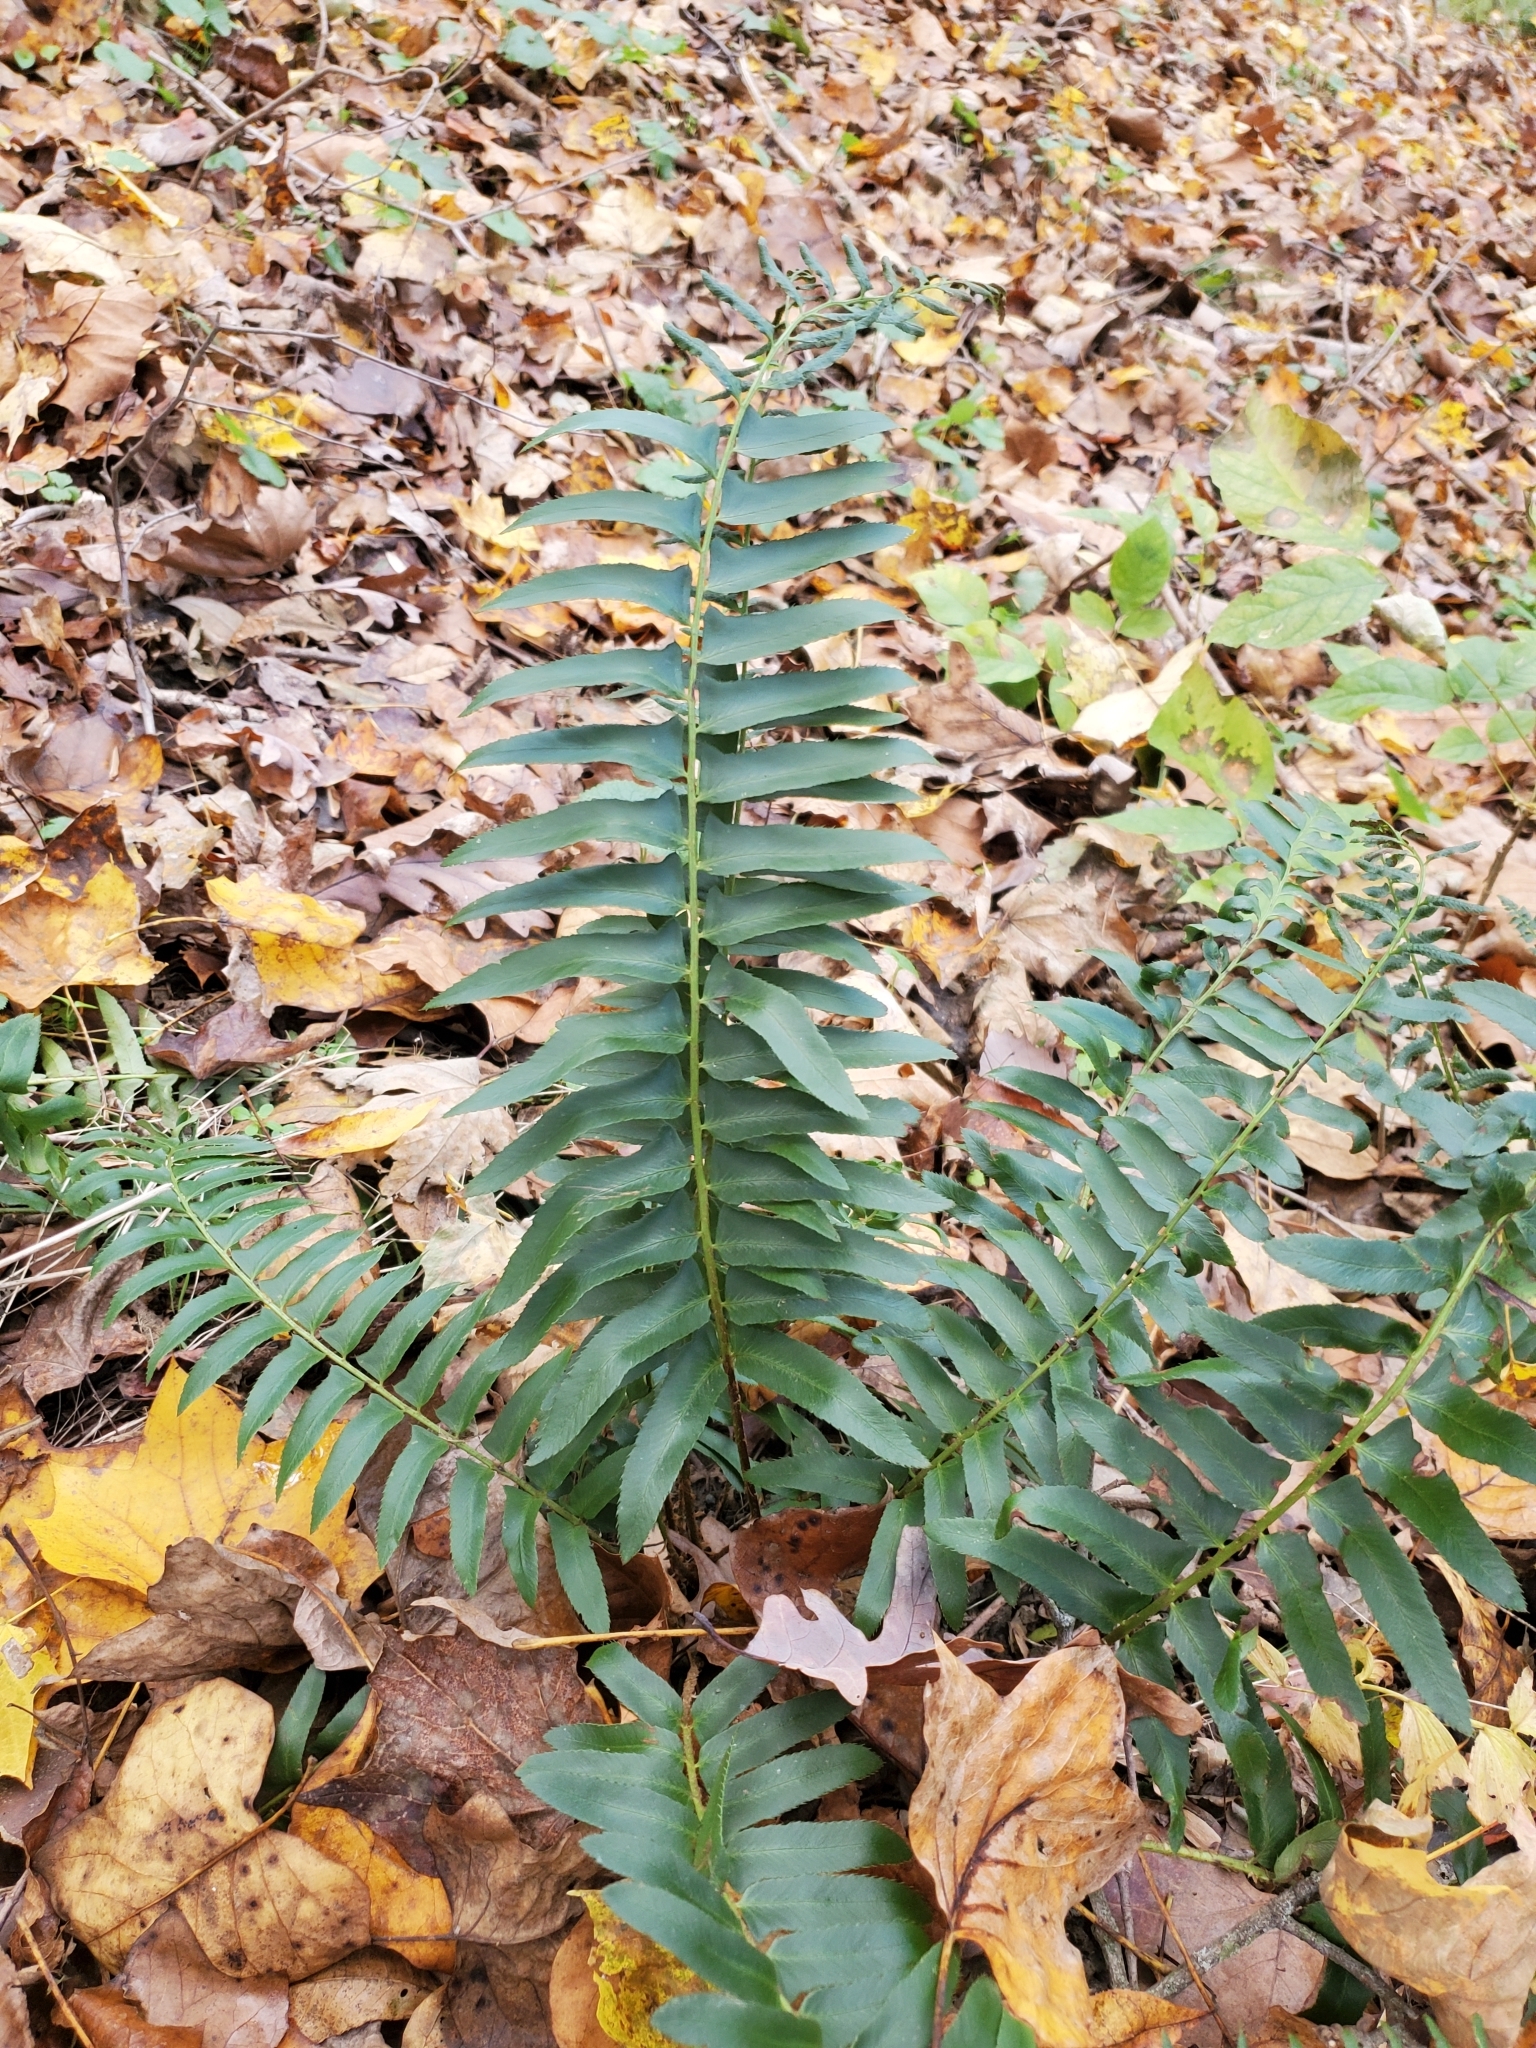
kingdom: Plantae
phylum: Tracheophyta
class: Polypodiopsida
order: Polypodiales
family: Dryopteridaceae
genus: Polystichum
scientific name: Polystichum acrostichoides
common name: Christmas fern
